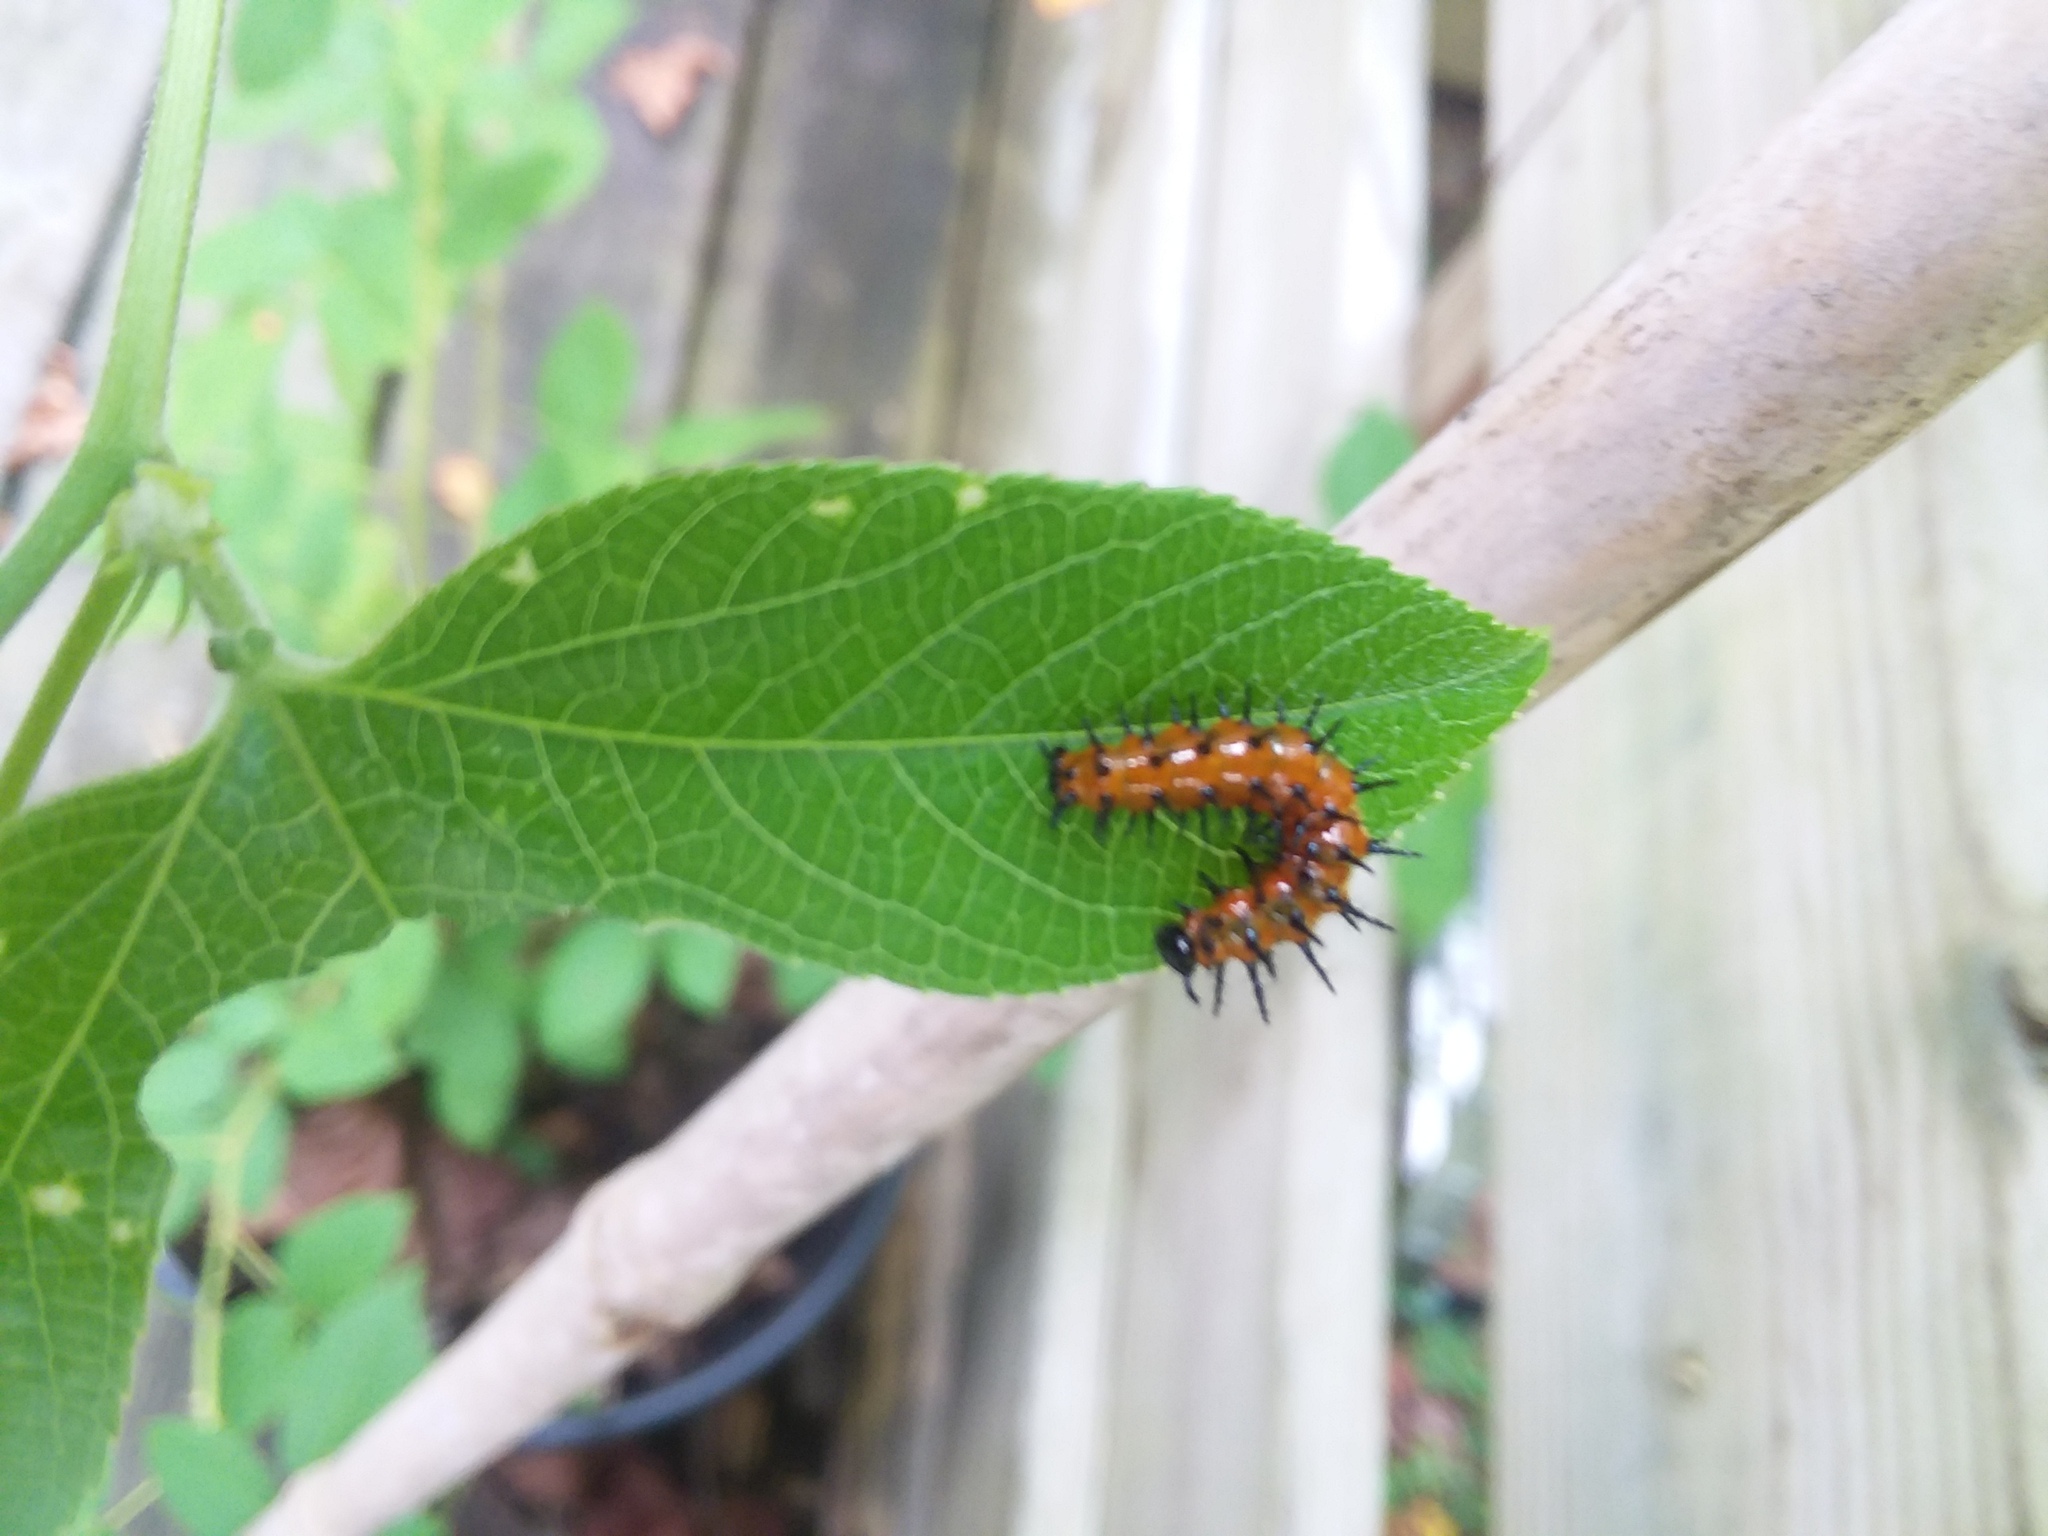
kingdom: Animalia
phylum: Arthropoda
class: Insecta
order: Lepidoptera
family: Nymphalidae
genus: Dione
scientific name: Dione vanillae
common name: Gulf fritillary
